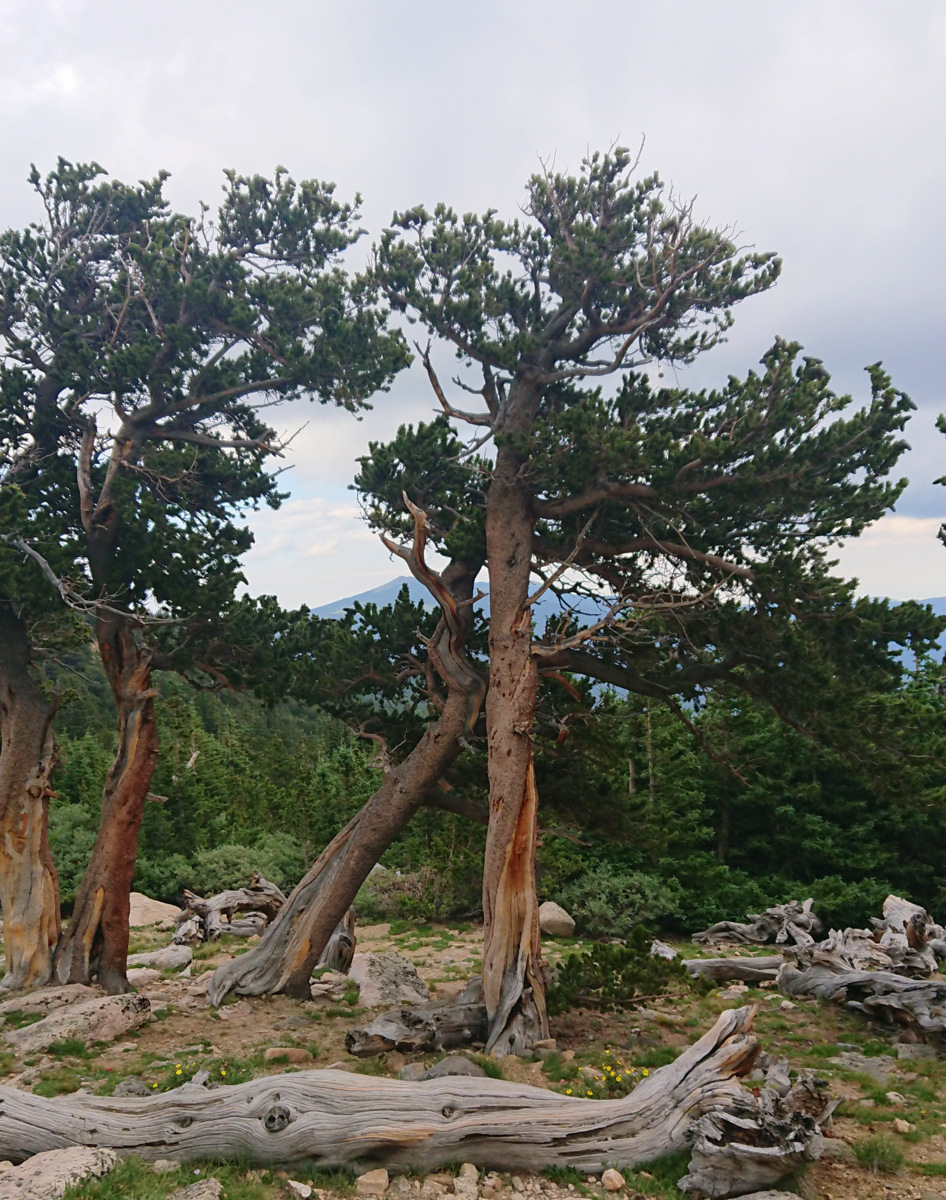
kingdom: Plantae
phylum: Tracheophyta
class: Pinopsida
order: Pinales
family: Pinaceae
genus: Pinus
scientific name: Pinus aristata
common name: Colorado bristlecone pine
